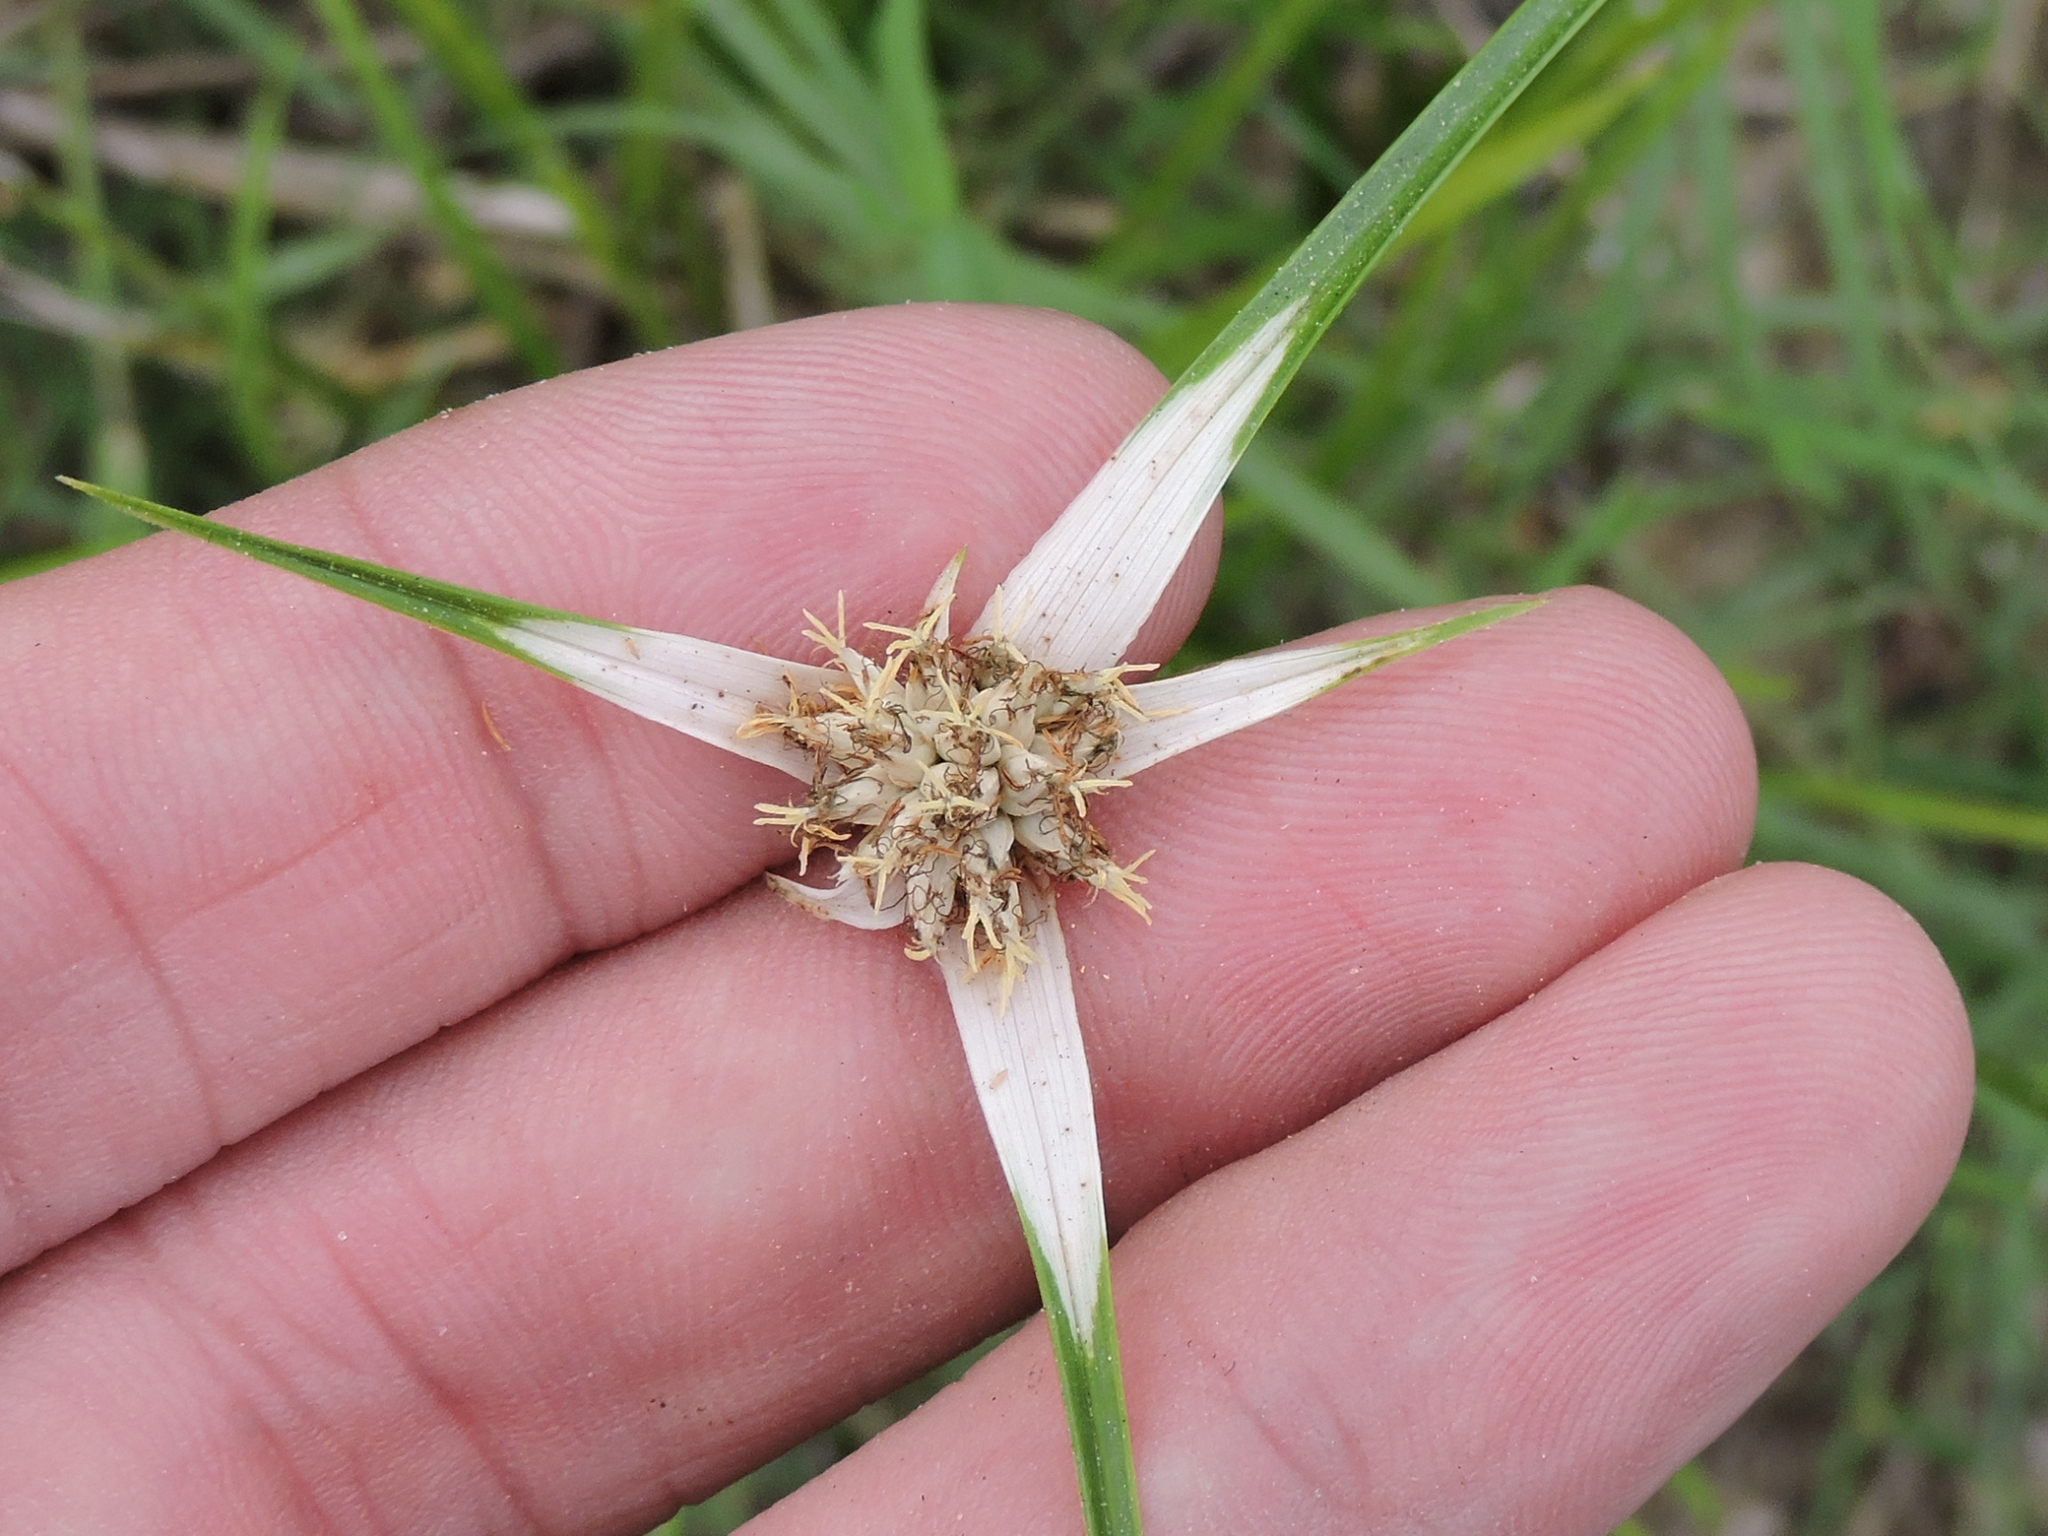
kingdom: Plantae
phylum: Tracheophyta
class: Liliopsida
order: Poales
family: Cyperaceae
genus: Rhynchospora
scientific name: Rhynchospora colorata
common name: Star sedge
